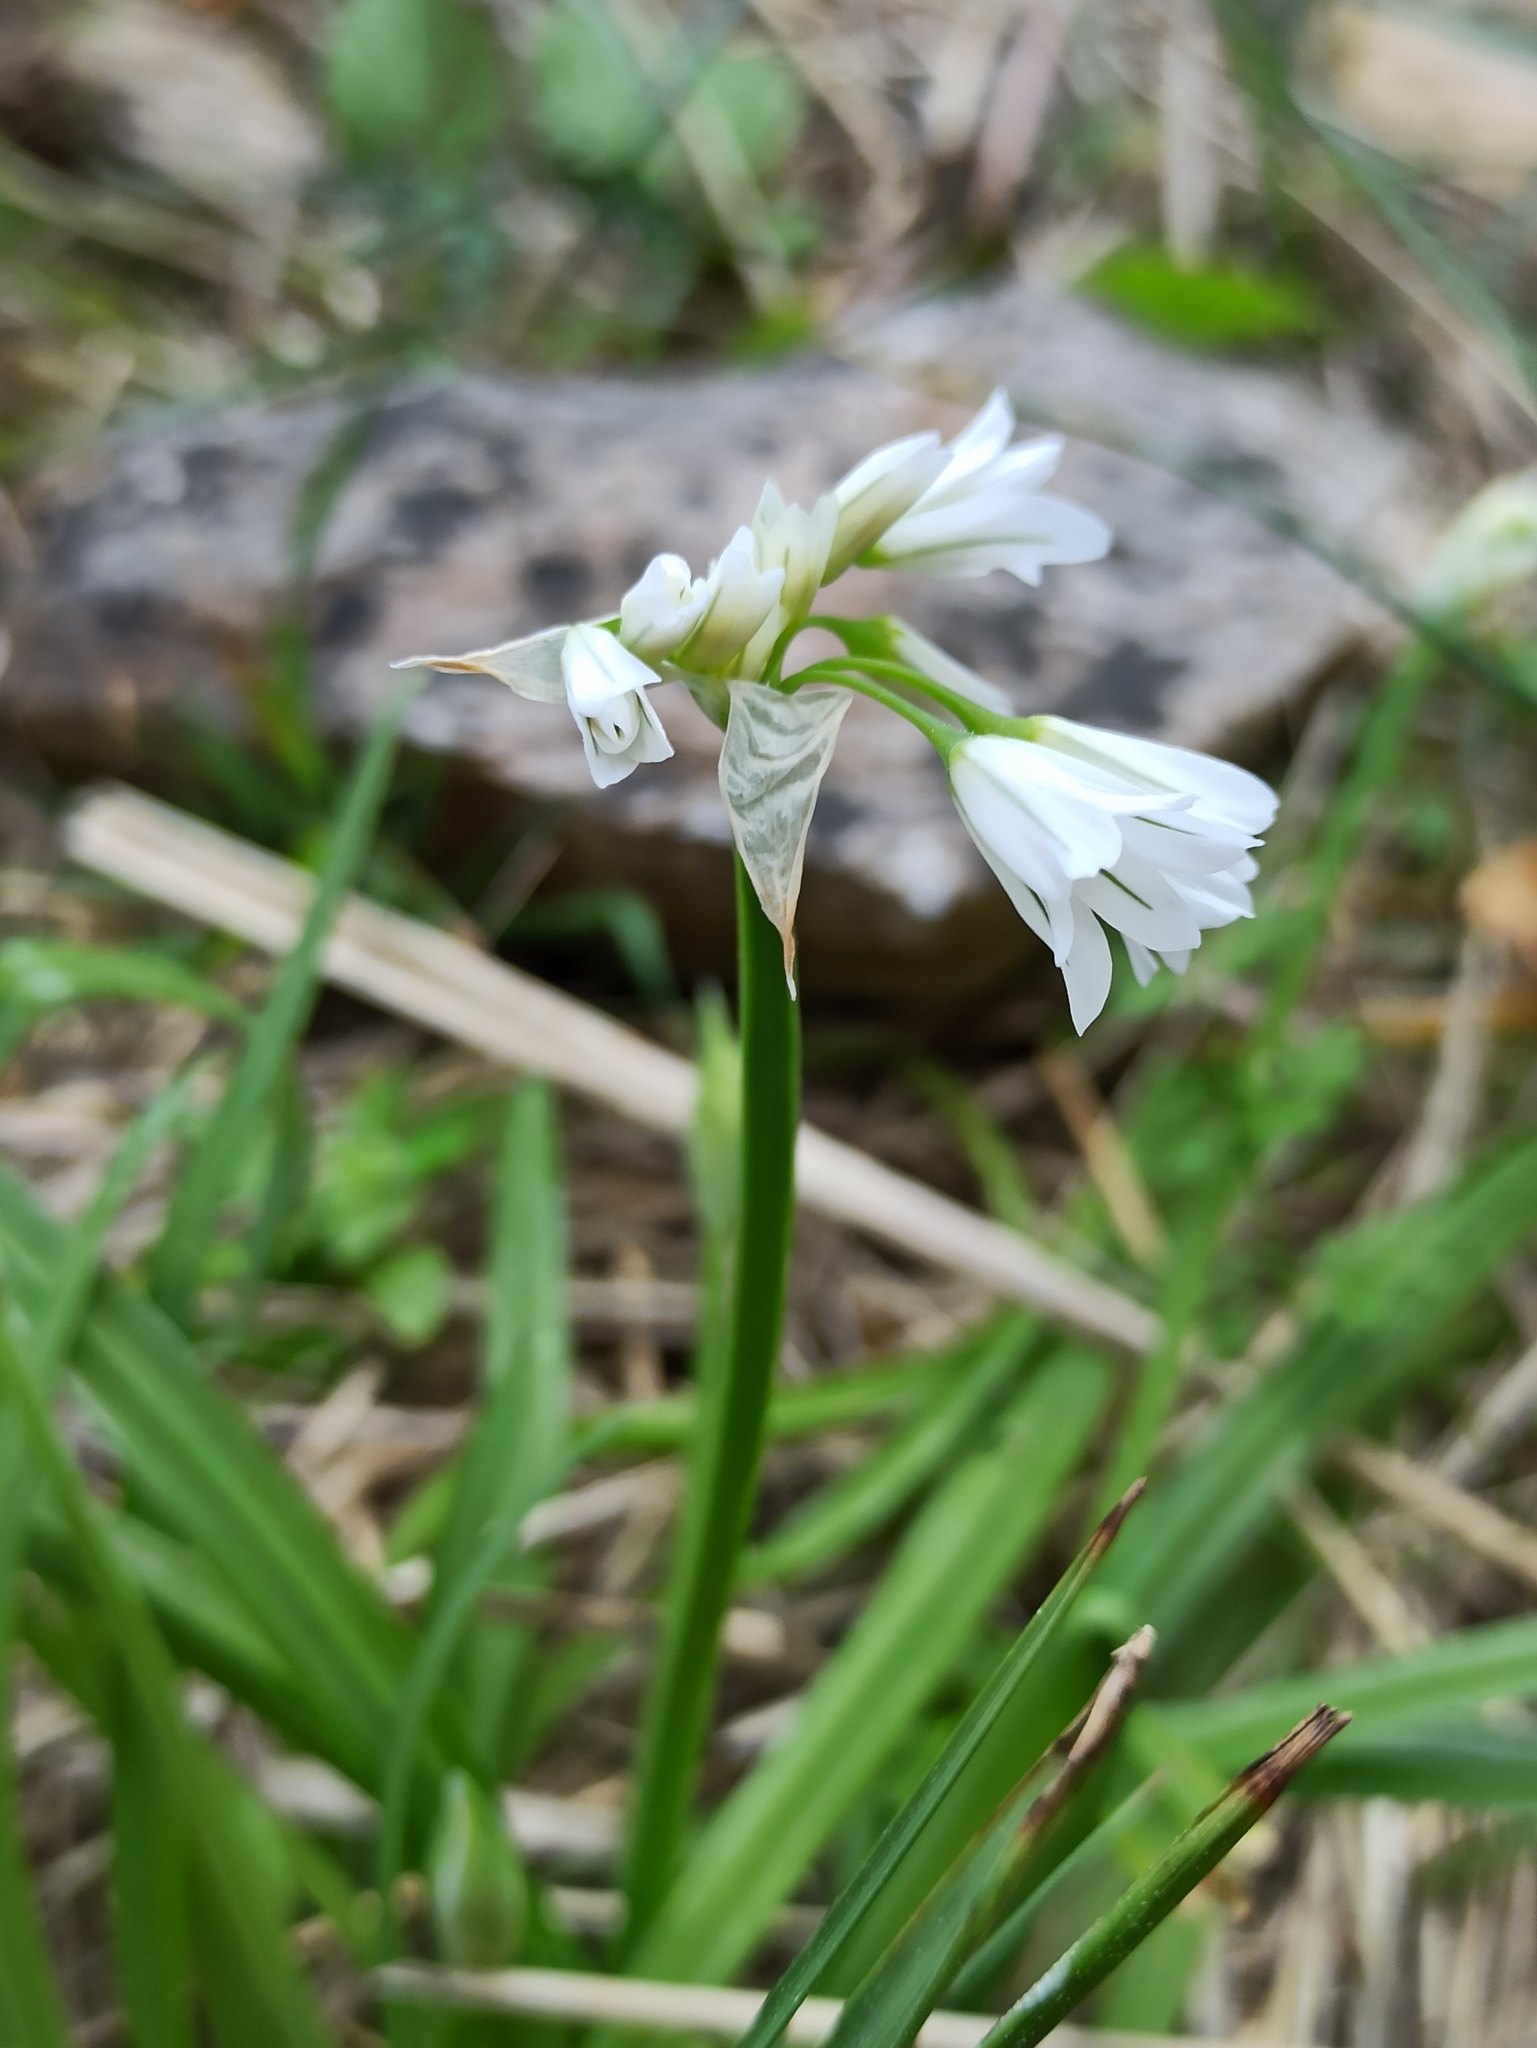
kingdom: Plantae
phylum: Tracheophyta
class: Liliopsida
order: Asparagales
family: Amaryllidaceae
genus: Allium
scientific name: Allium triquetrum
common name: Three-cornered garlic
